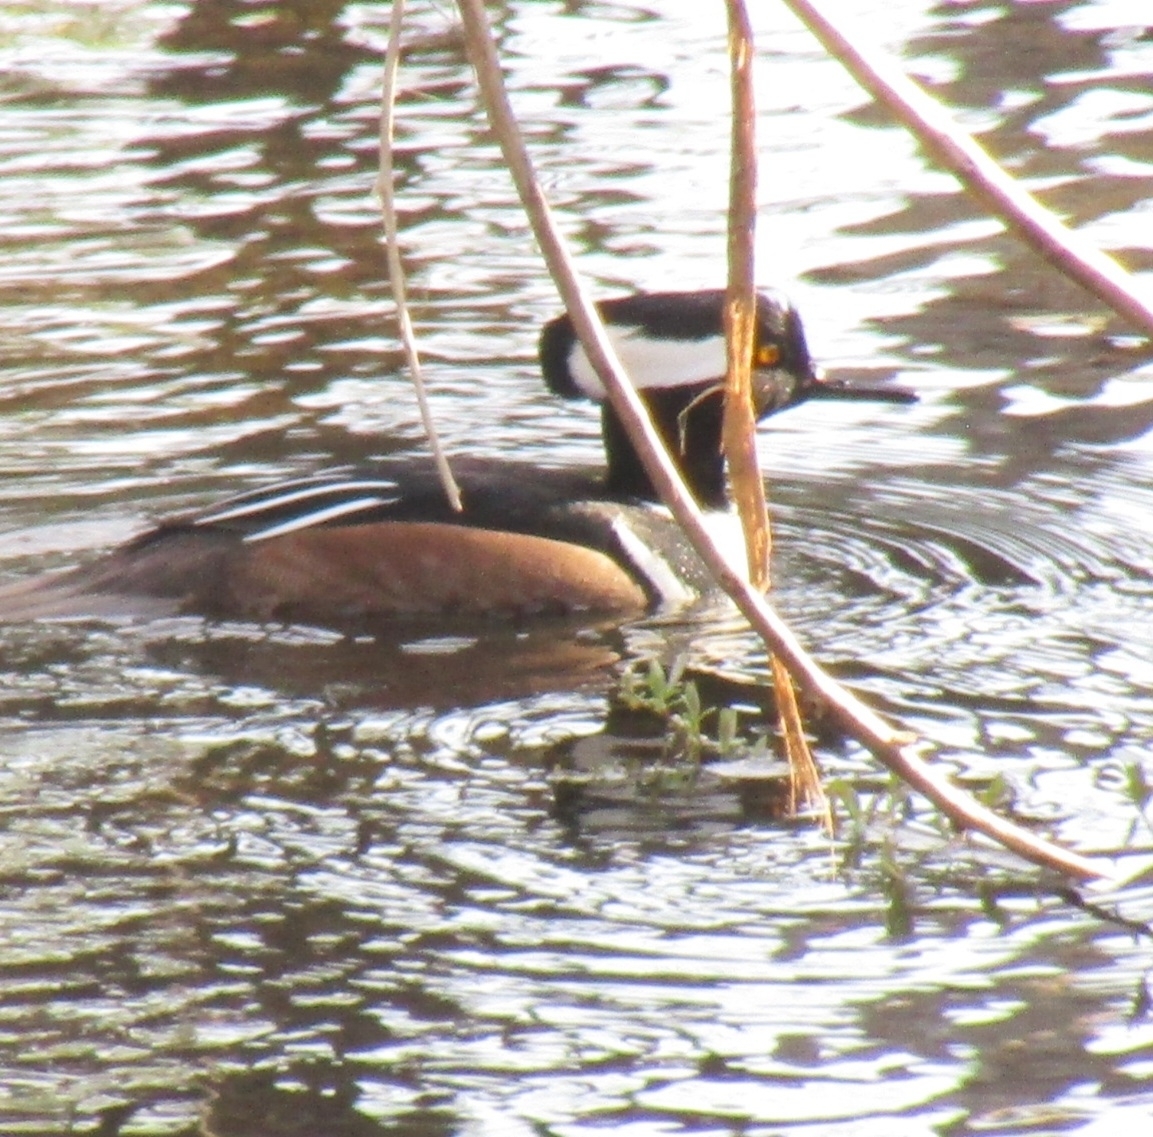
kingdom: Animalia
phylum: Chordata
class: Aves
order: Anseriformes
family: Anatidae
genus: Lophodytes
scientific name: Lophodytes cucullatus
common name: Hooded merganser
